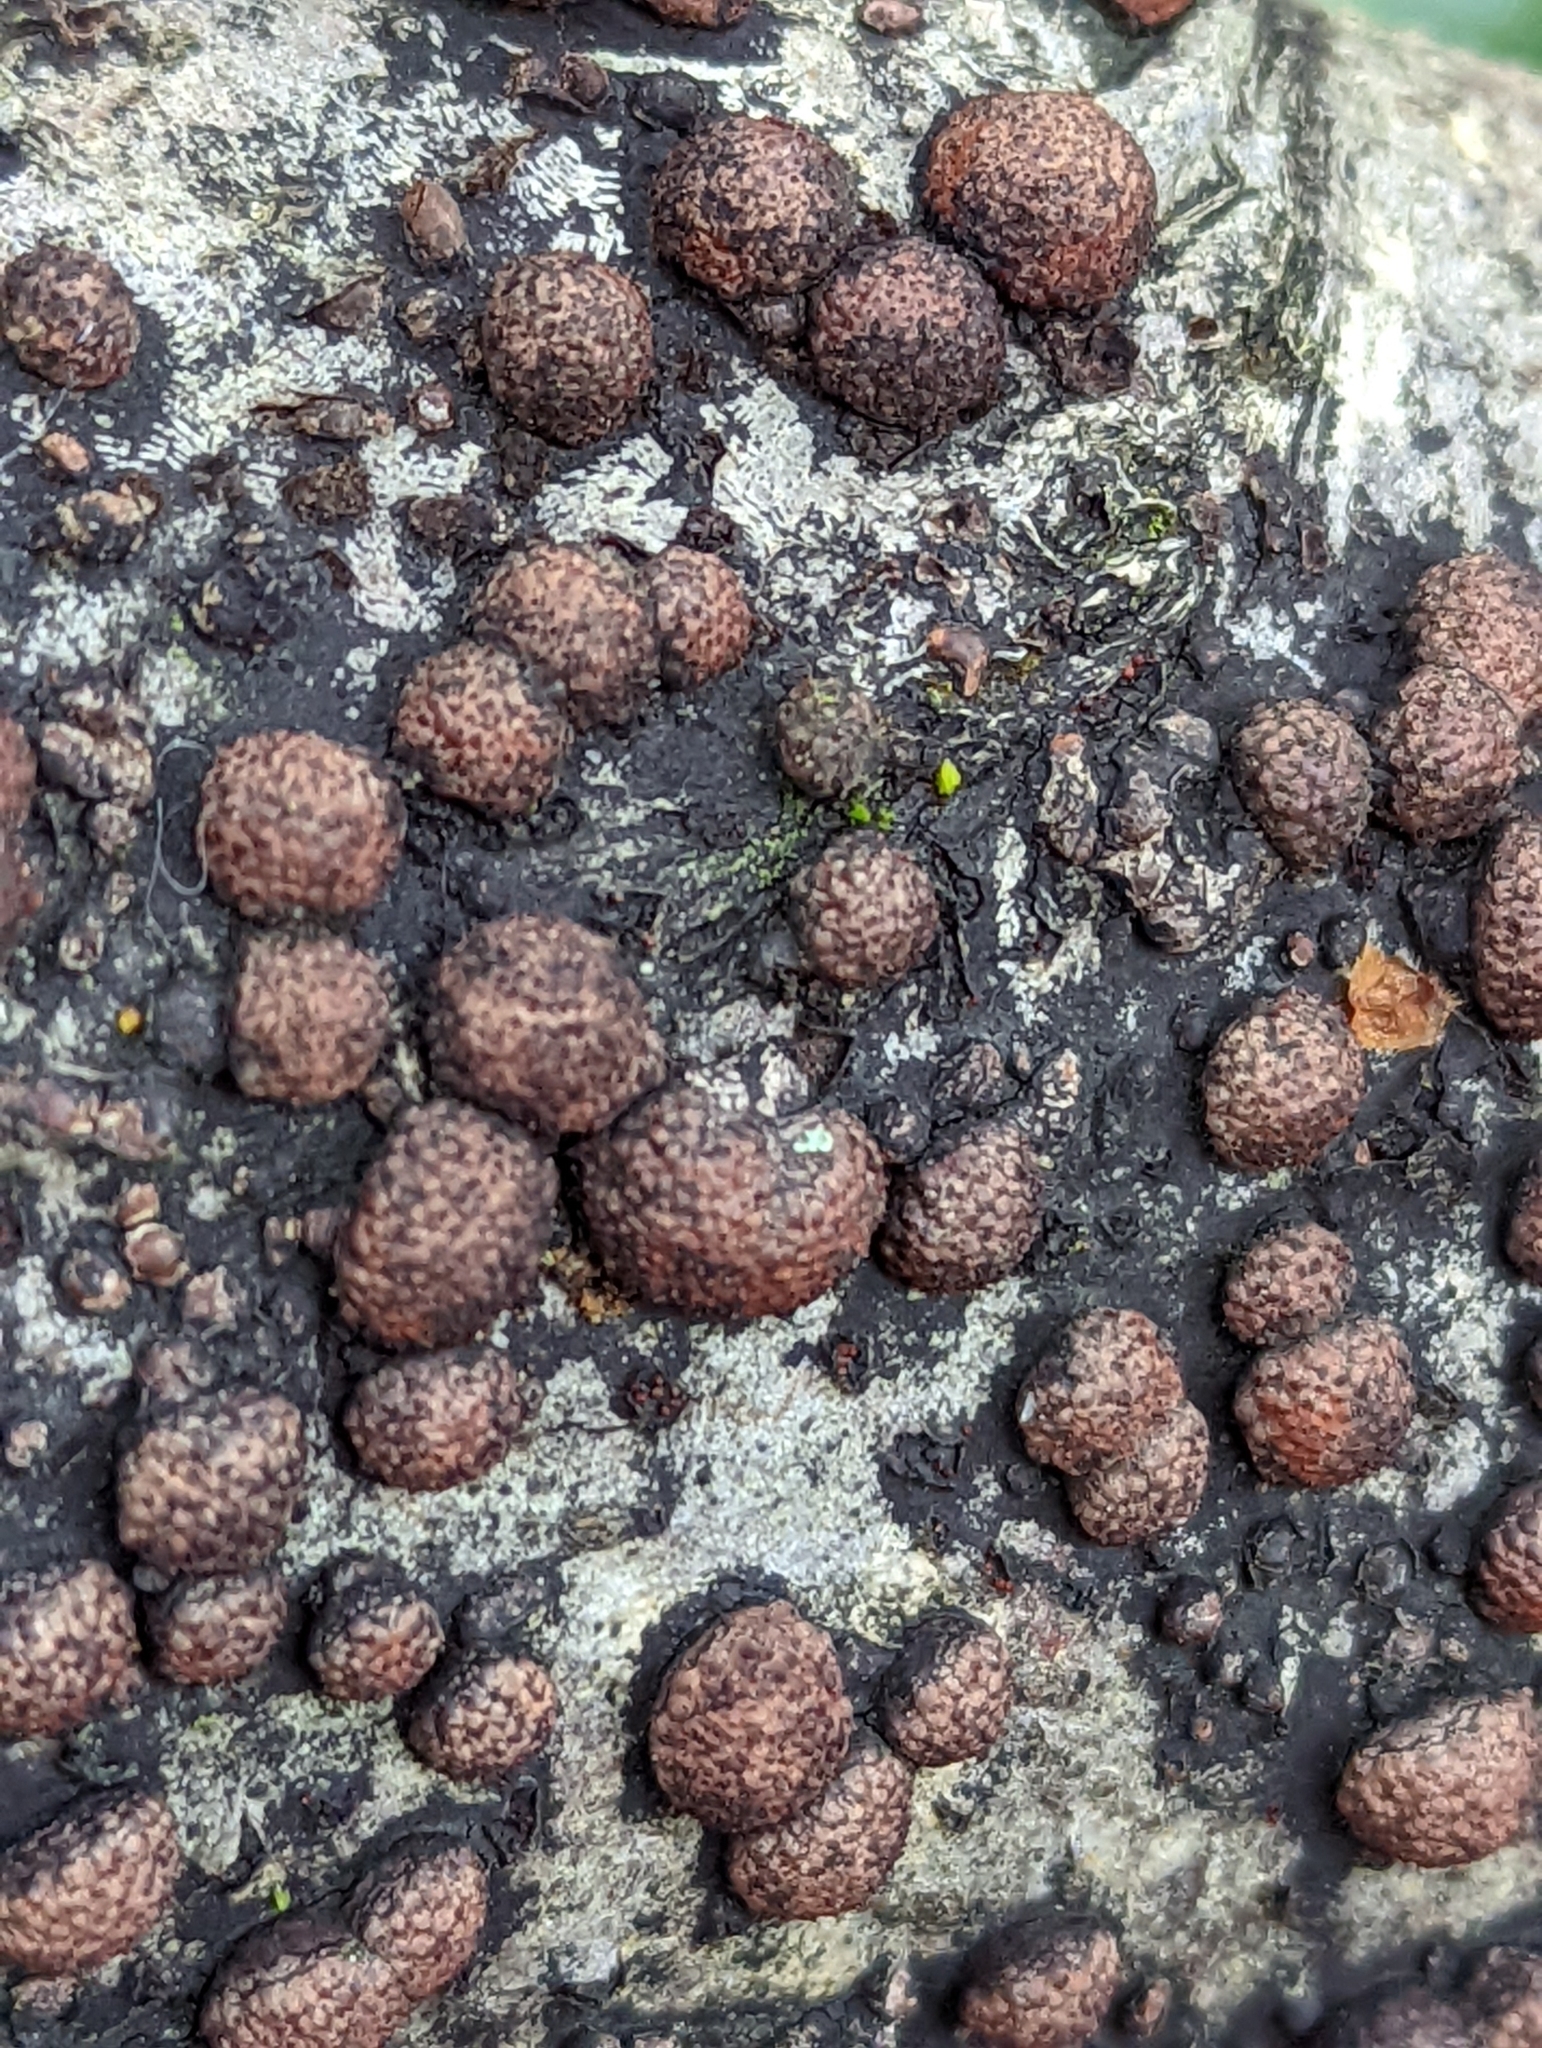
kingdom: Fungi
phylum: Ascomycota
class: Sordariomycetes
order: Xylariales
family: Hypoxylaceae
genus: Hypoxylon
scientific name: Hypoxylon fragiforme
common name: Beech woodwart
